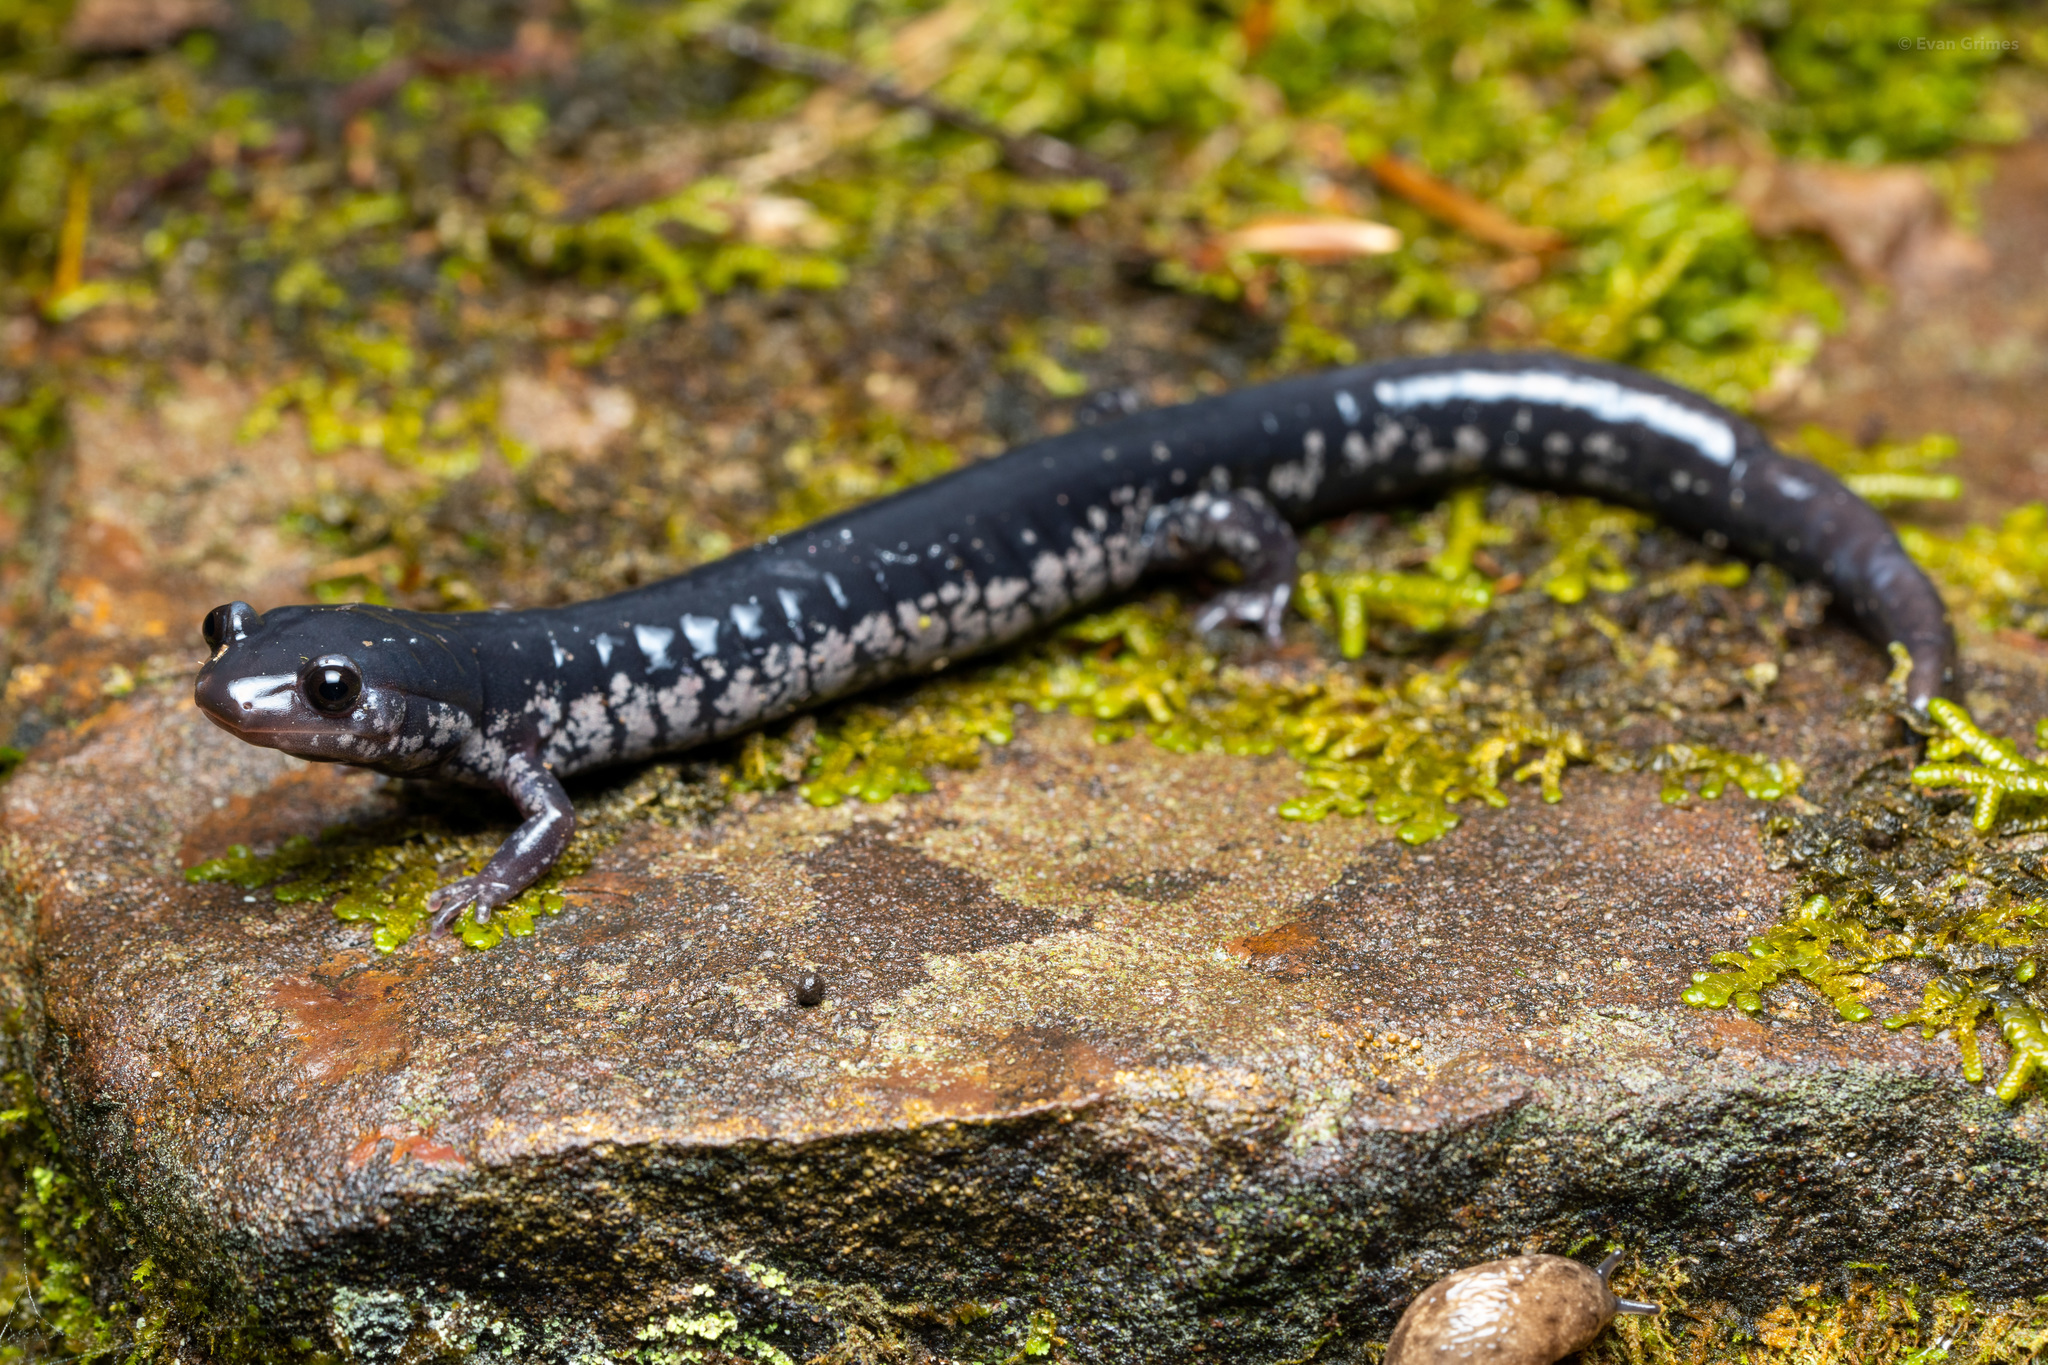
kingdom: Animalia
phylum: Chordata
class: Amphibia
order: Caudata
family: Plethodontidae
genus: Plethodon
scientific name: Plethodon mississippi
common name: Mississippi slimy salamander
